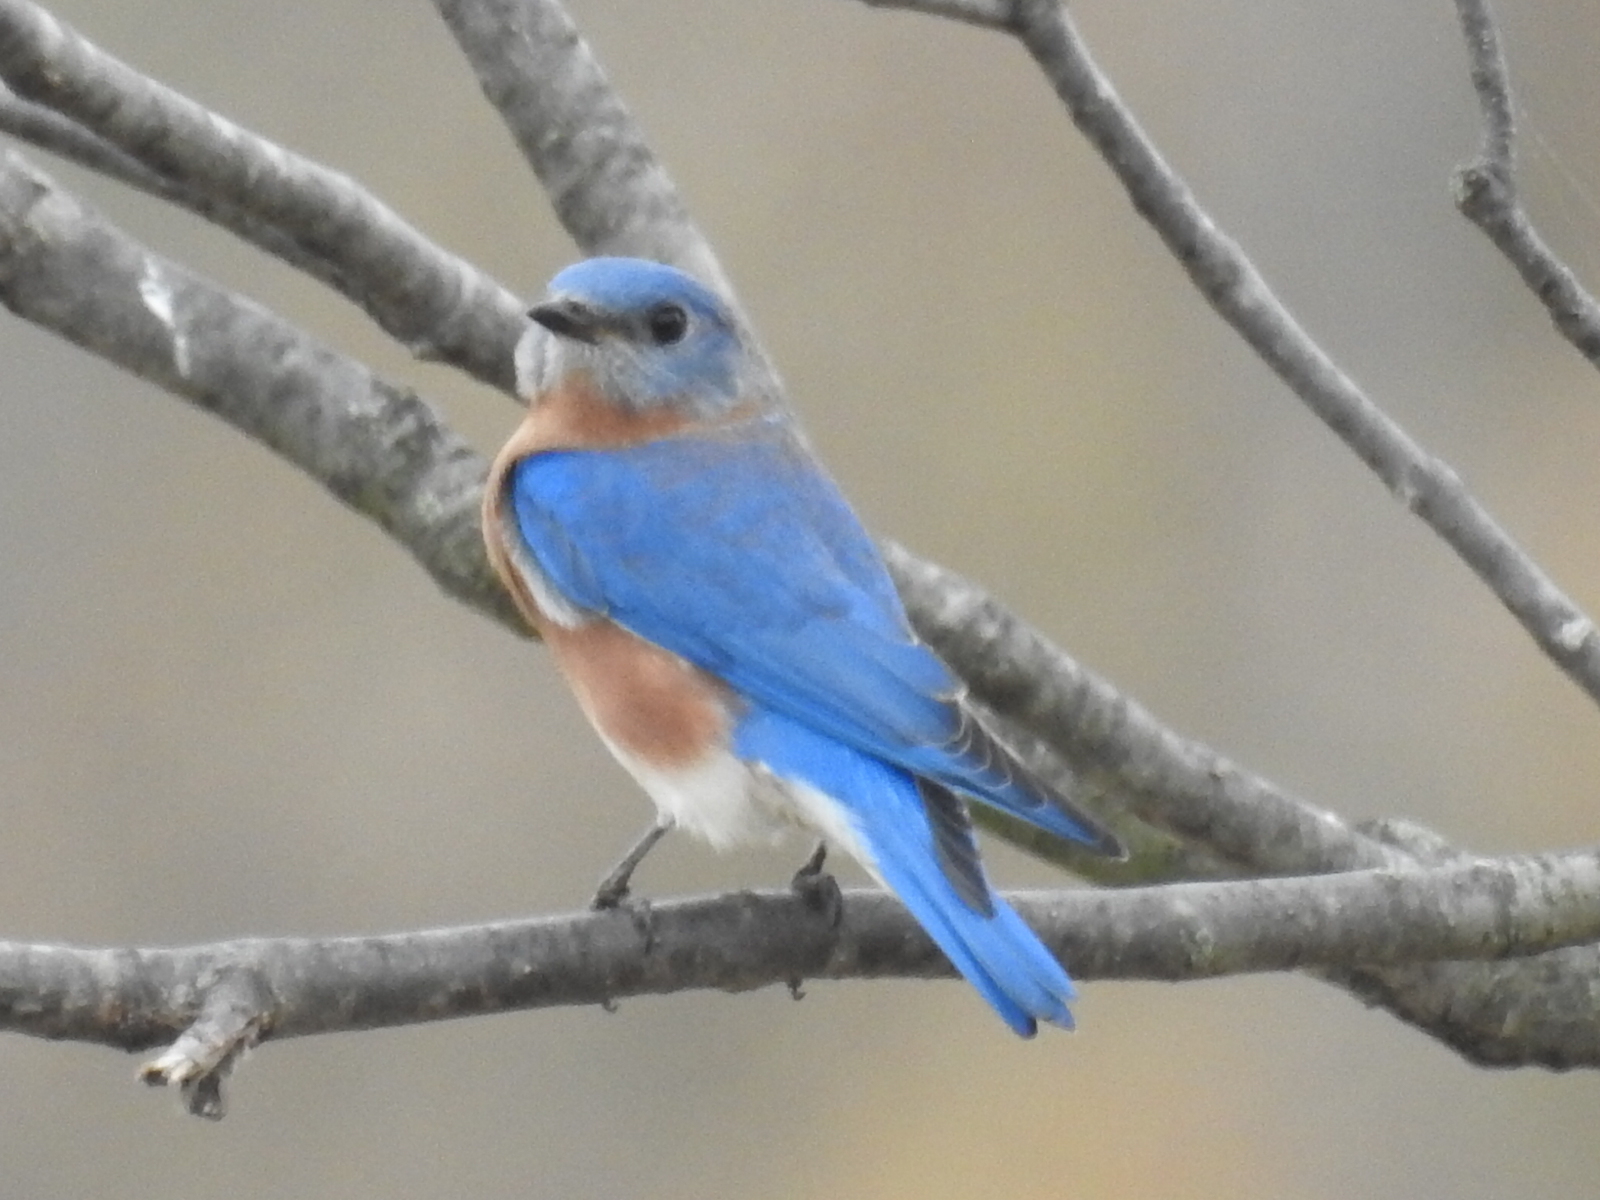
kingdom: Animalia
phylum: Chordata
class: Aves
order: Passeriformes
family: Turdidae
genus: Sialia
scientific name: Sialia sialis
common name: Eastern bluebird
